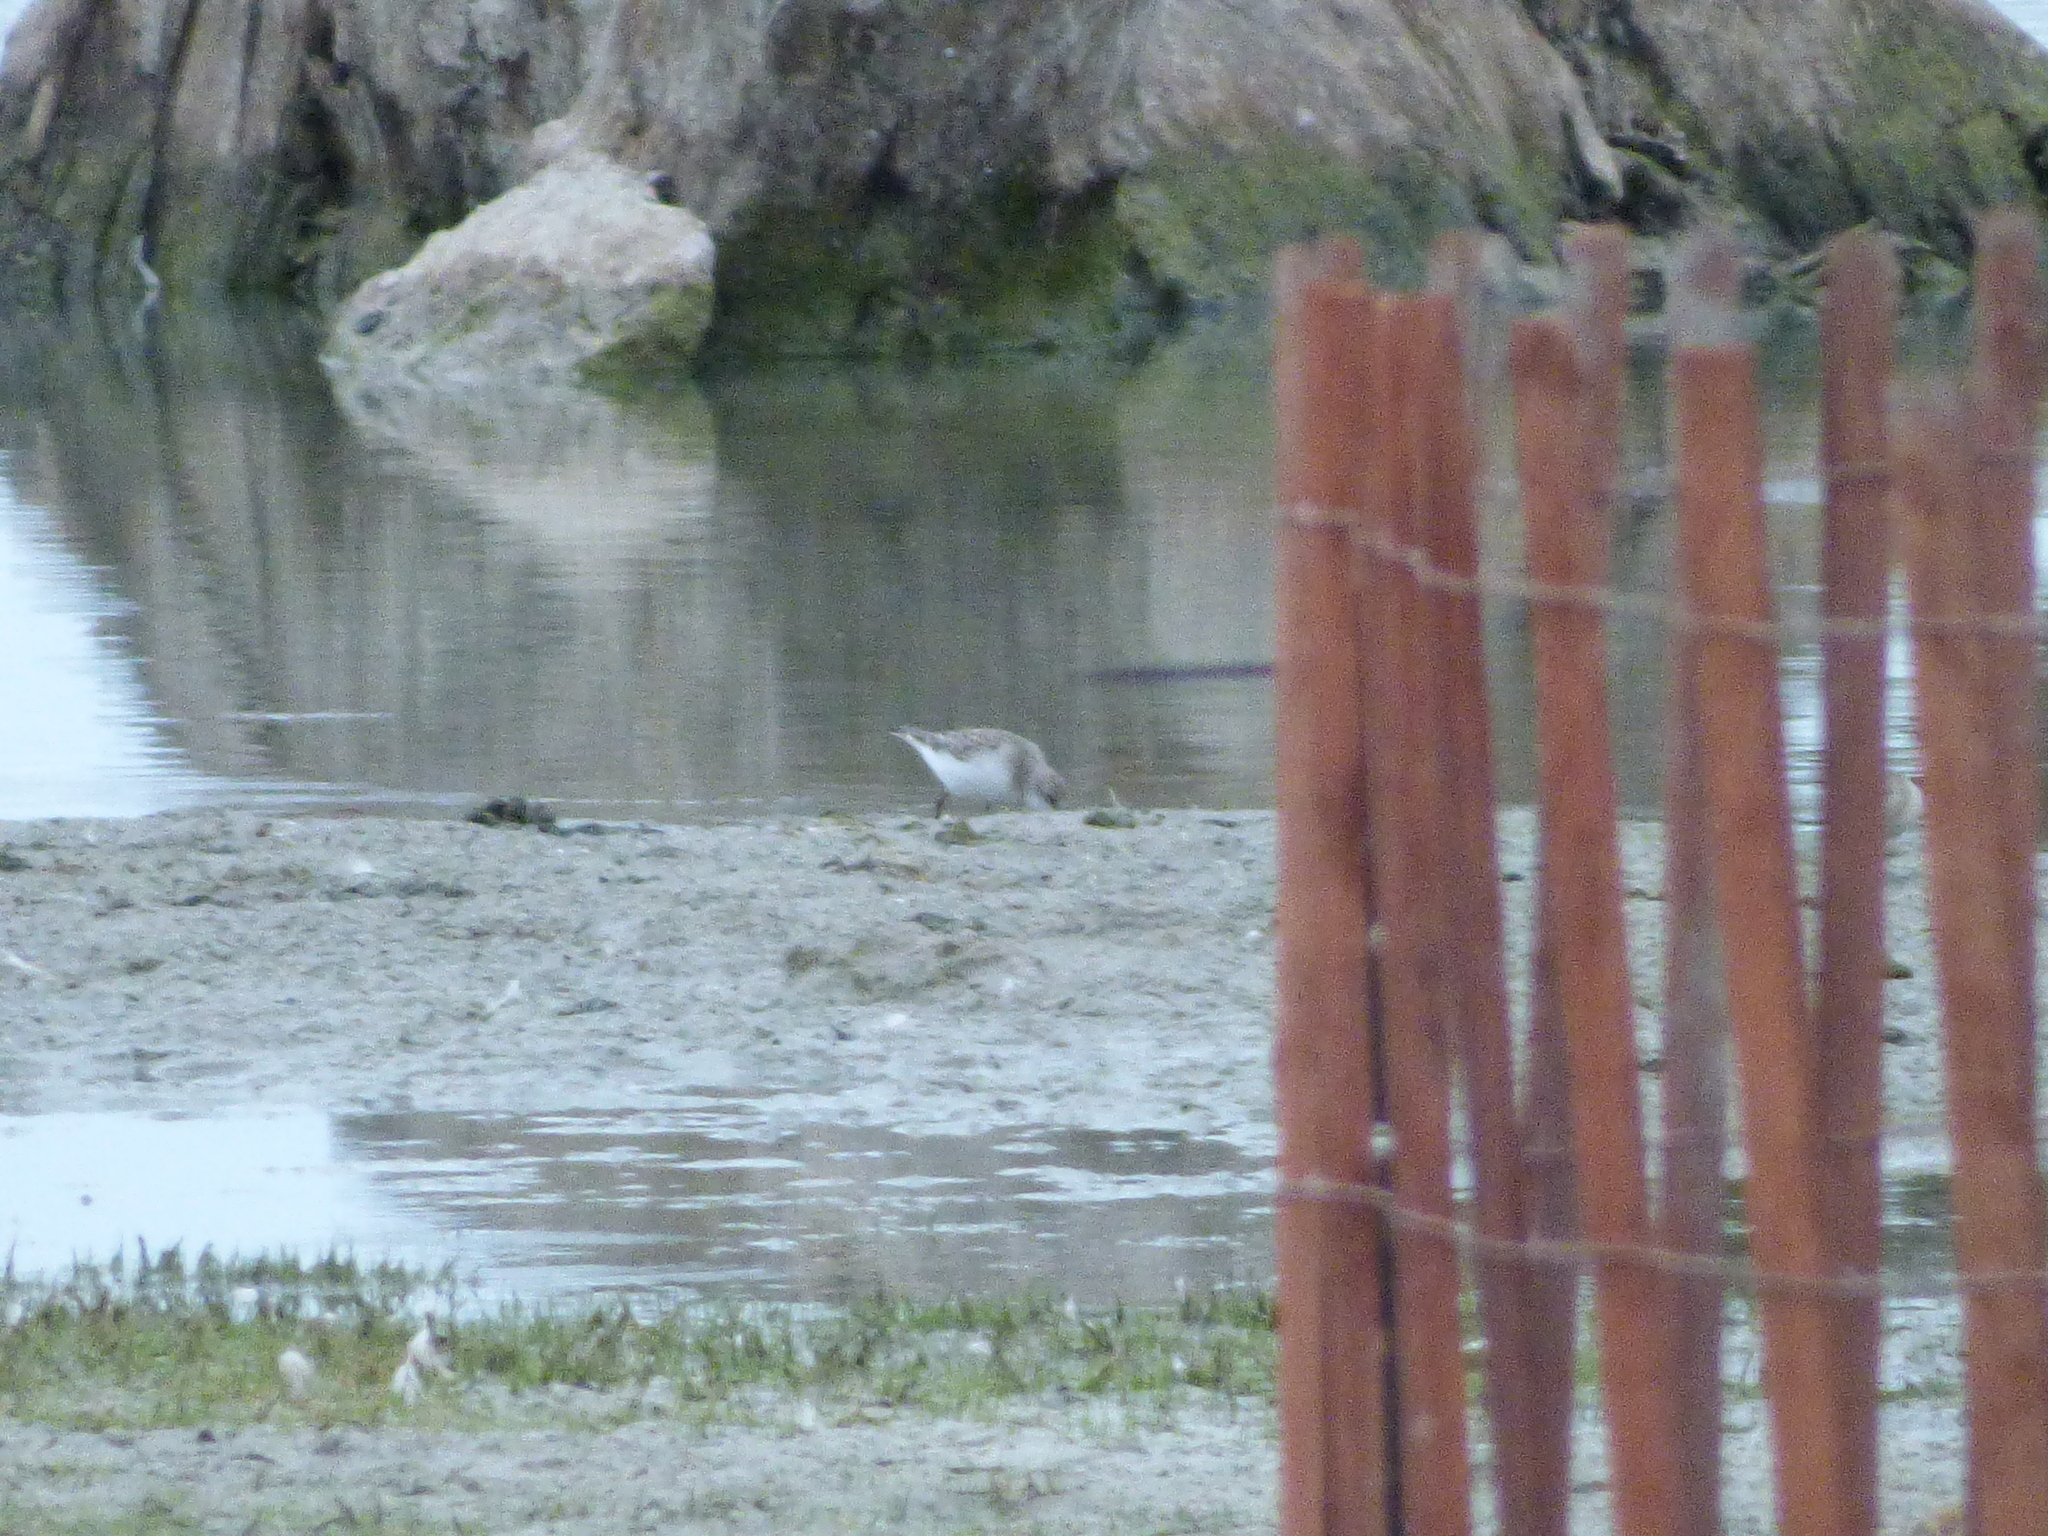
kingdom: Animalia
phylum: Chordata
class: Aves
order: Charadriiformes
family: Scolopacidae
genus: Calidris
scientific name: Calidris alba
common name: Sanderling
